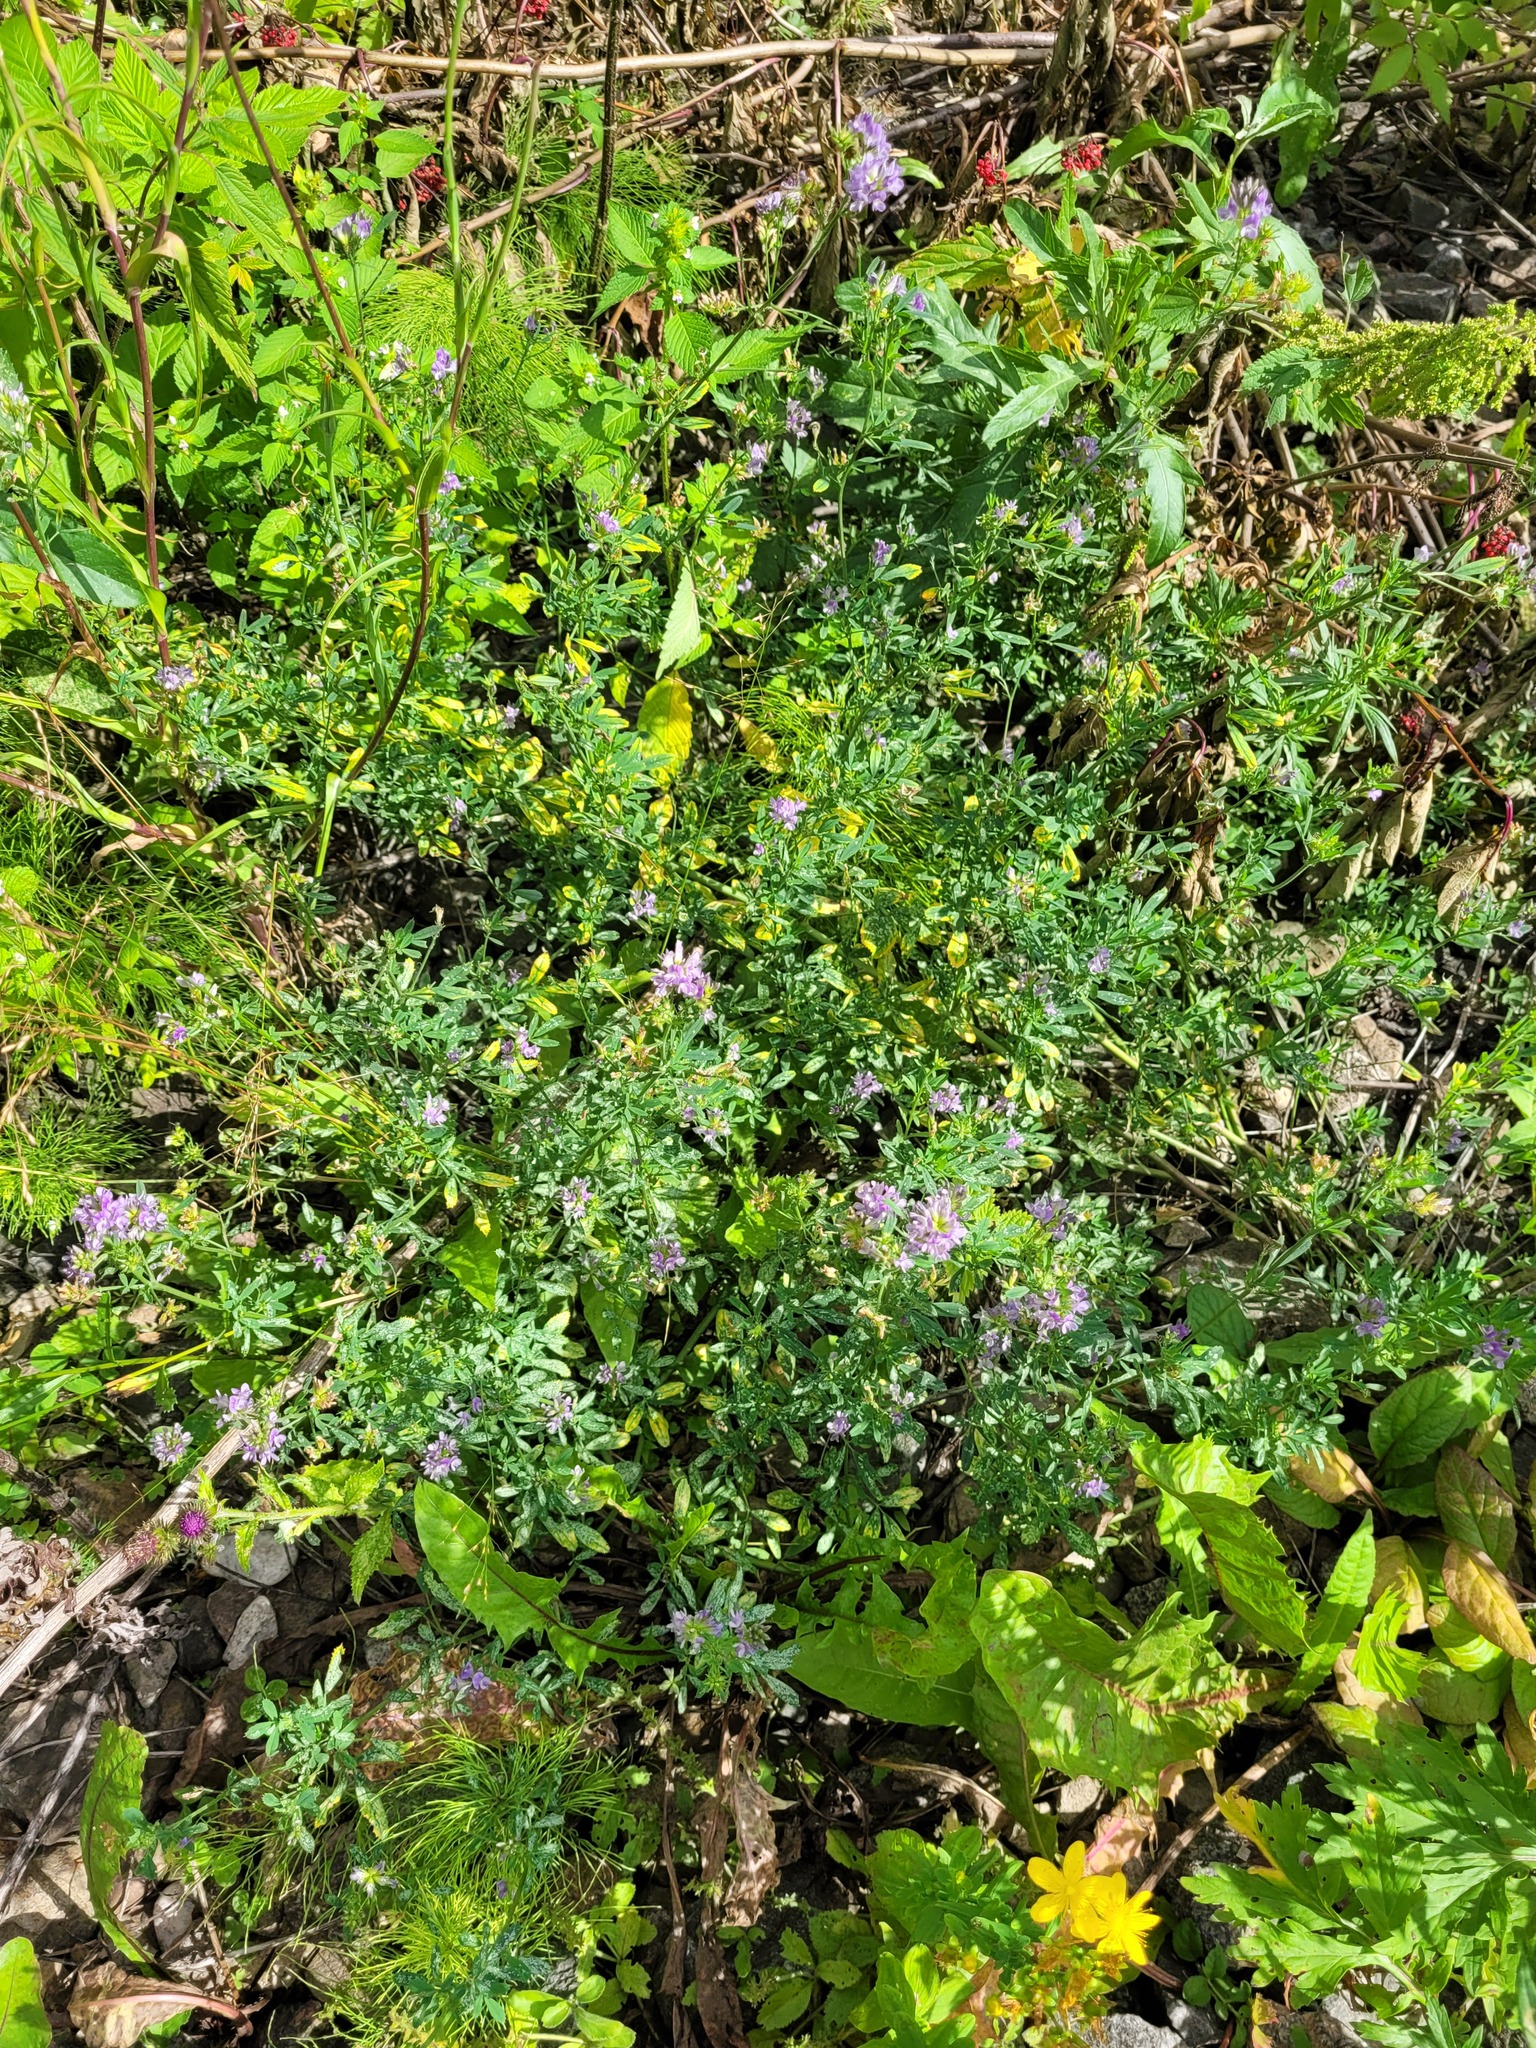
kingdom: Plantae
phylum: Tracheophyta
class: Magnoliopsida
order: Fabales
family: Fabaceae
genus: Medicago
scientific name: Medicago varia
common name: Sand lucerne
